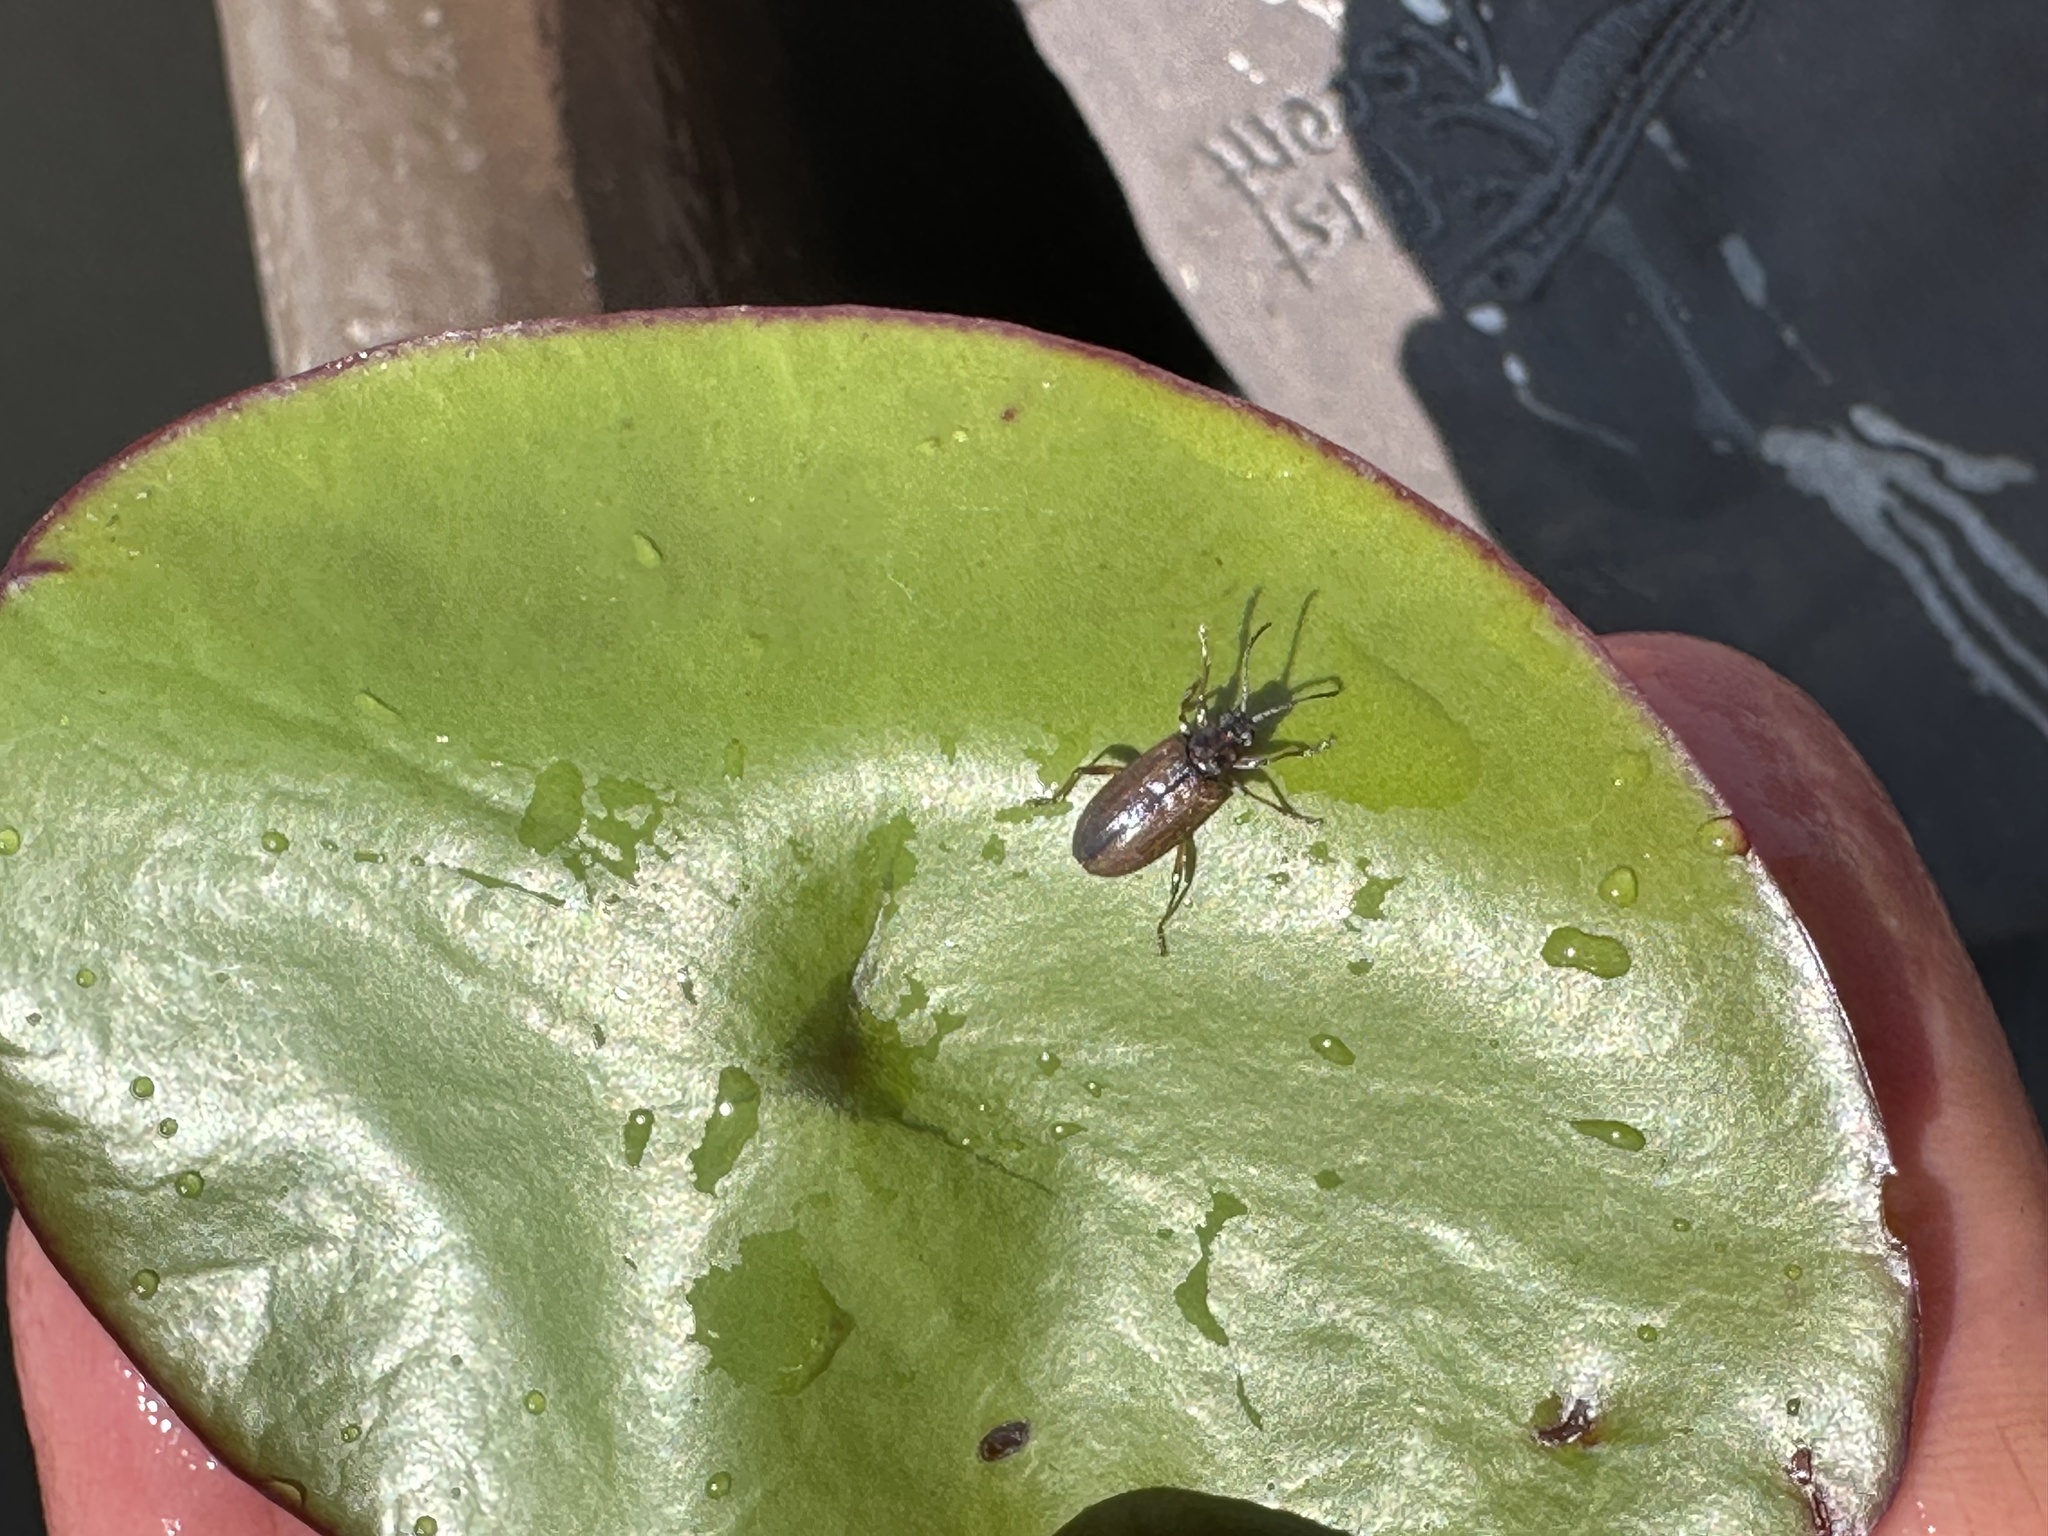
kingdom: Plantae
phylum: Tracheophyta
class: Magnoliopsida
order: Nymphaeales
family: Cabombaceae
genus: Brasenia
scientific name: Brasenia schreberi
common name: Water-shield
